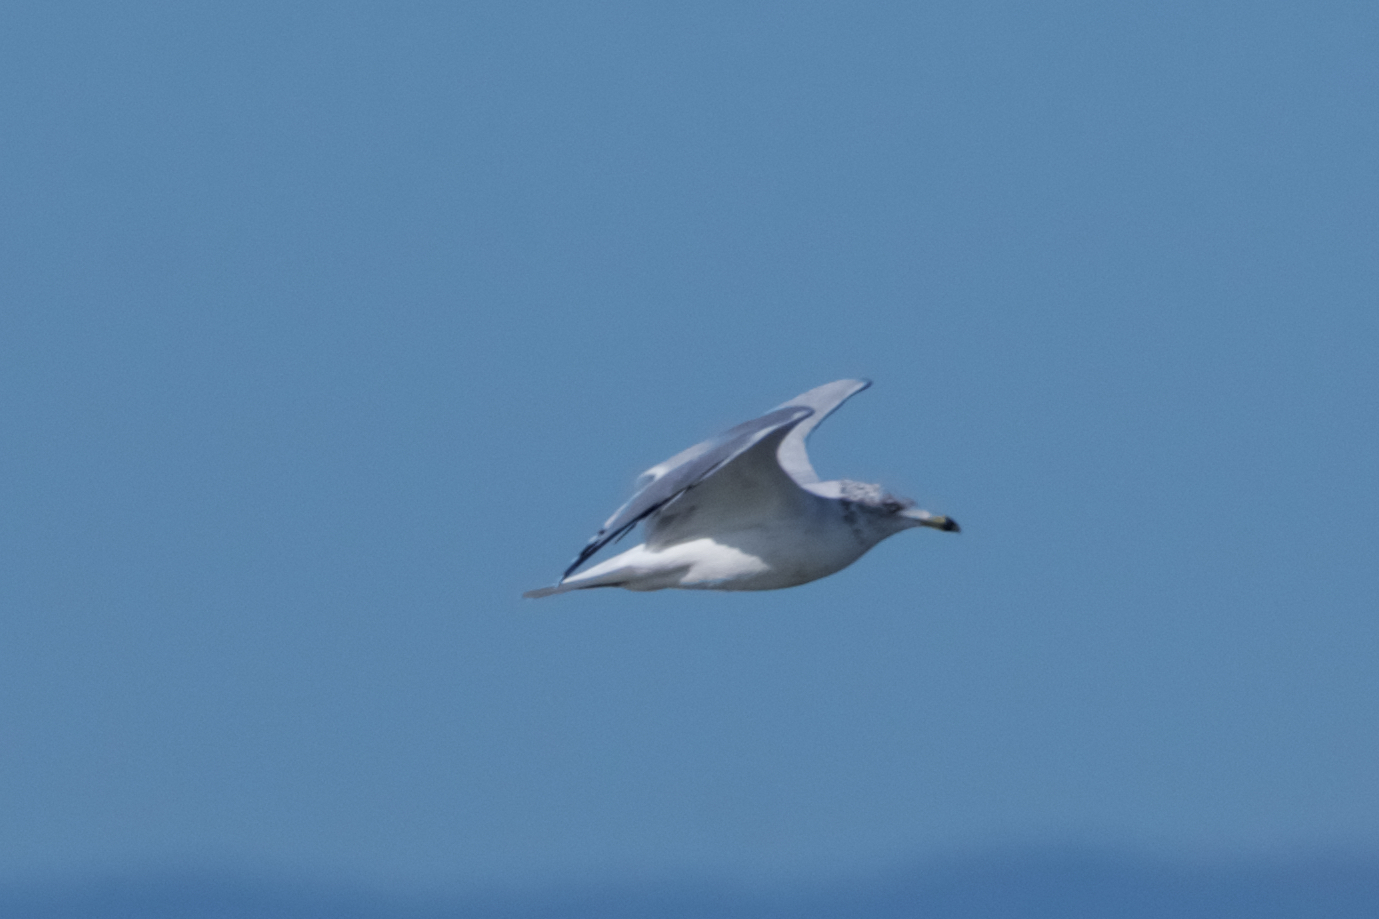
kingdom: Animalia
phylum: Chordata
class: Aves
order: Charadriiformes
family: Laridae
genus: Larus
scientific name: Larus delawarensis
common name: Ring-billed gull
